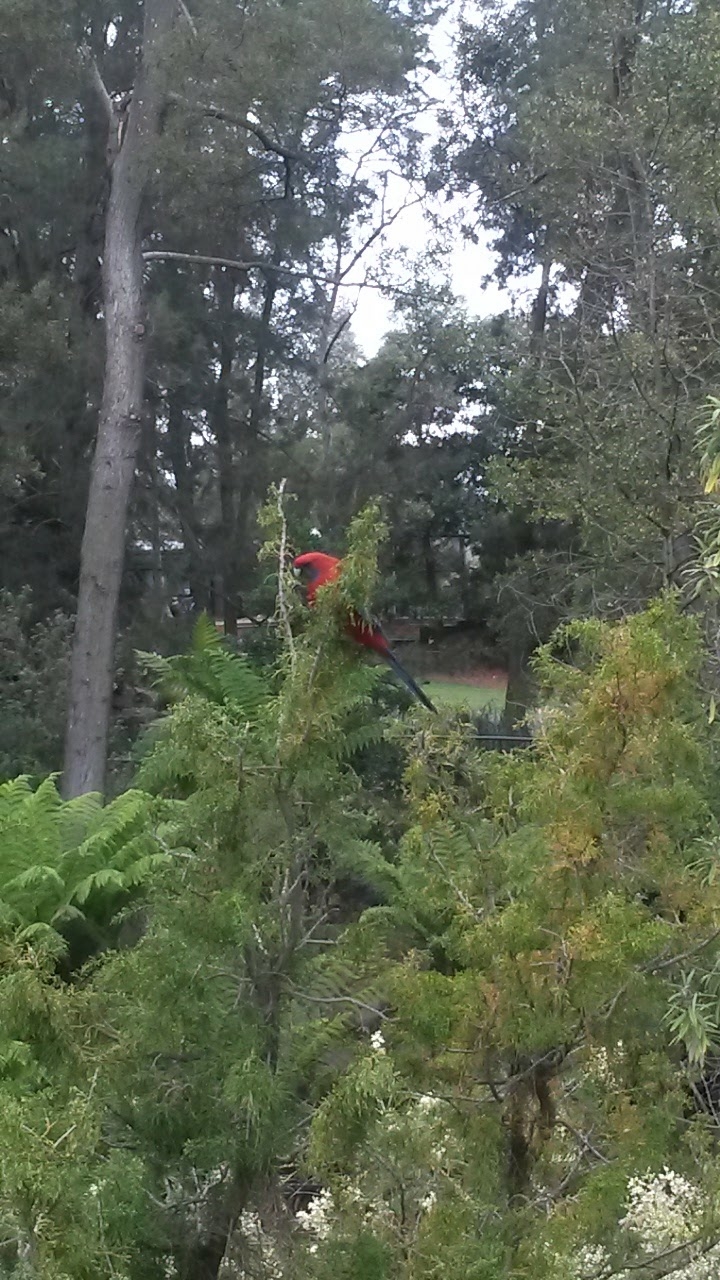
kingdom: Animalia
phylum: Chordata
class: Aves
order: Psittaciformes
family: Psittacidae
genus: Platycercus
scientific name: Platycercus elegans
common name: Crimson rosella
